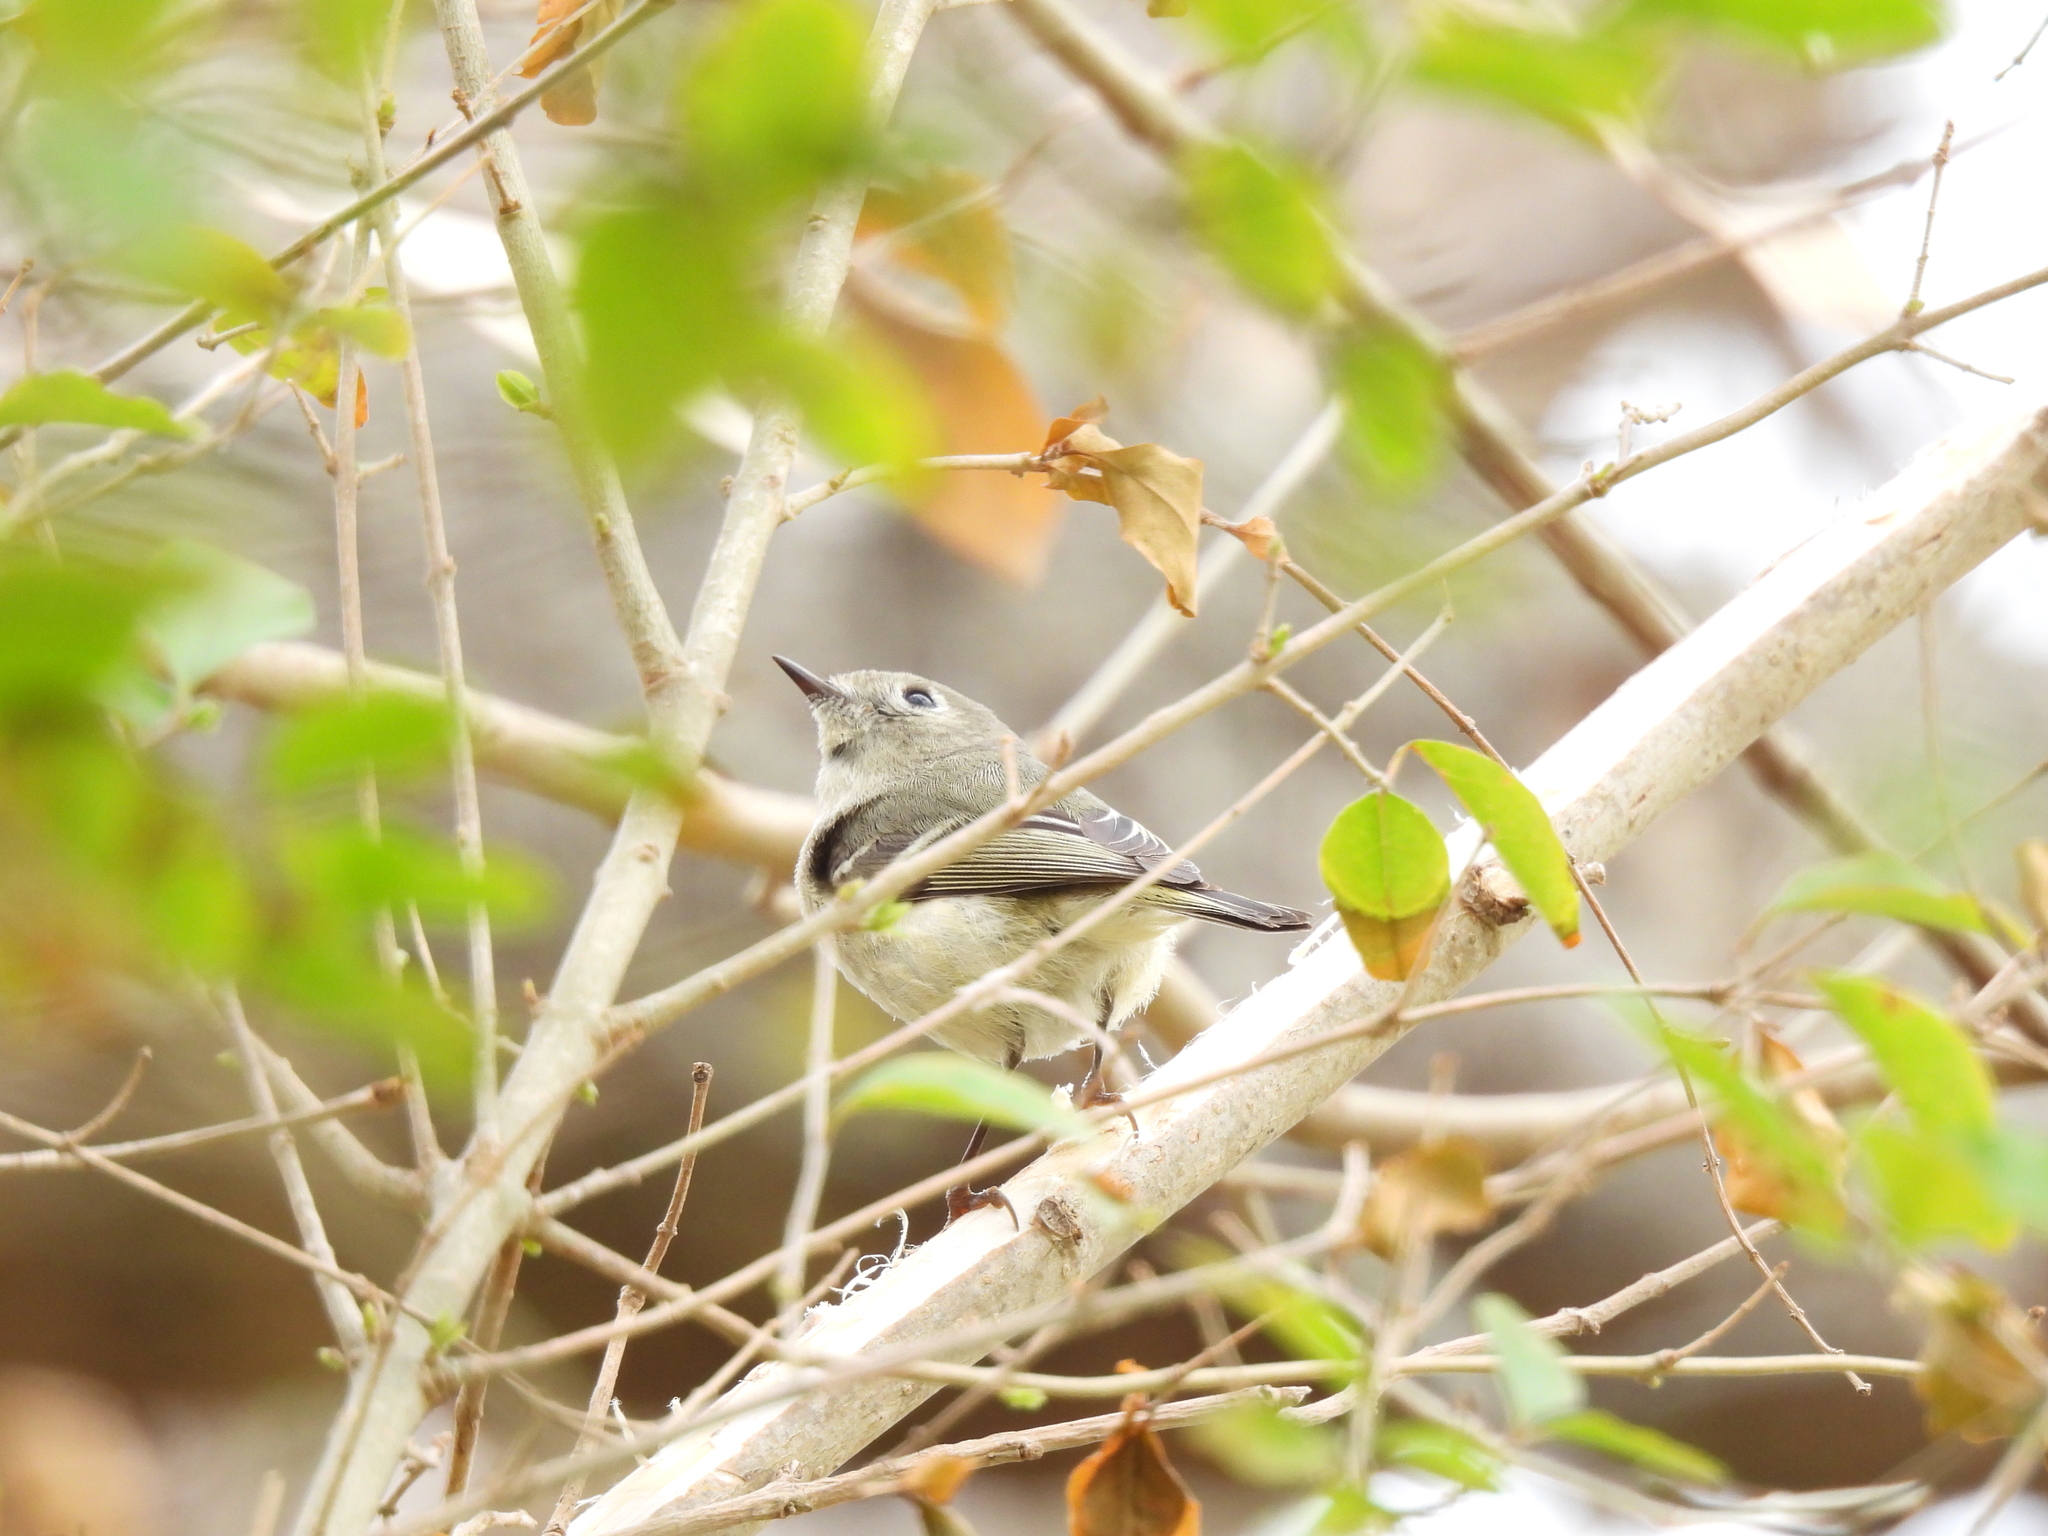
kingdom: Animalia
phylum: Chordata
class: Aves
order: Passeriformes
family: Regulidae
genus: Regulus
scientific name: Regulus calendula
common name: Ruby-crowned kinglet
